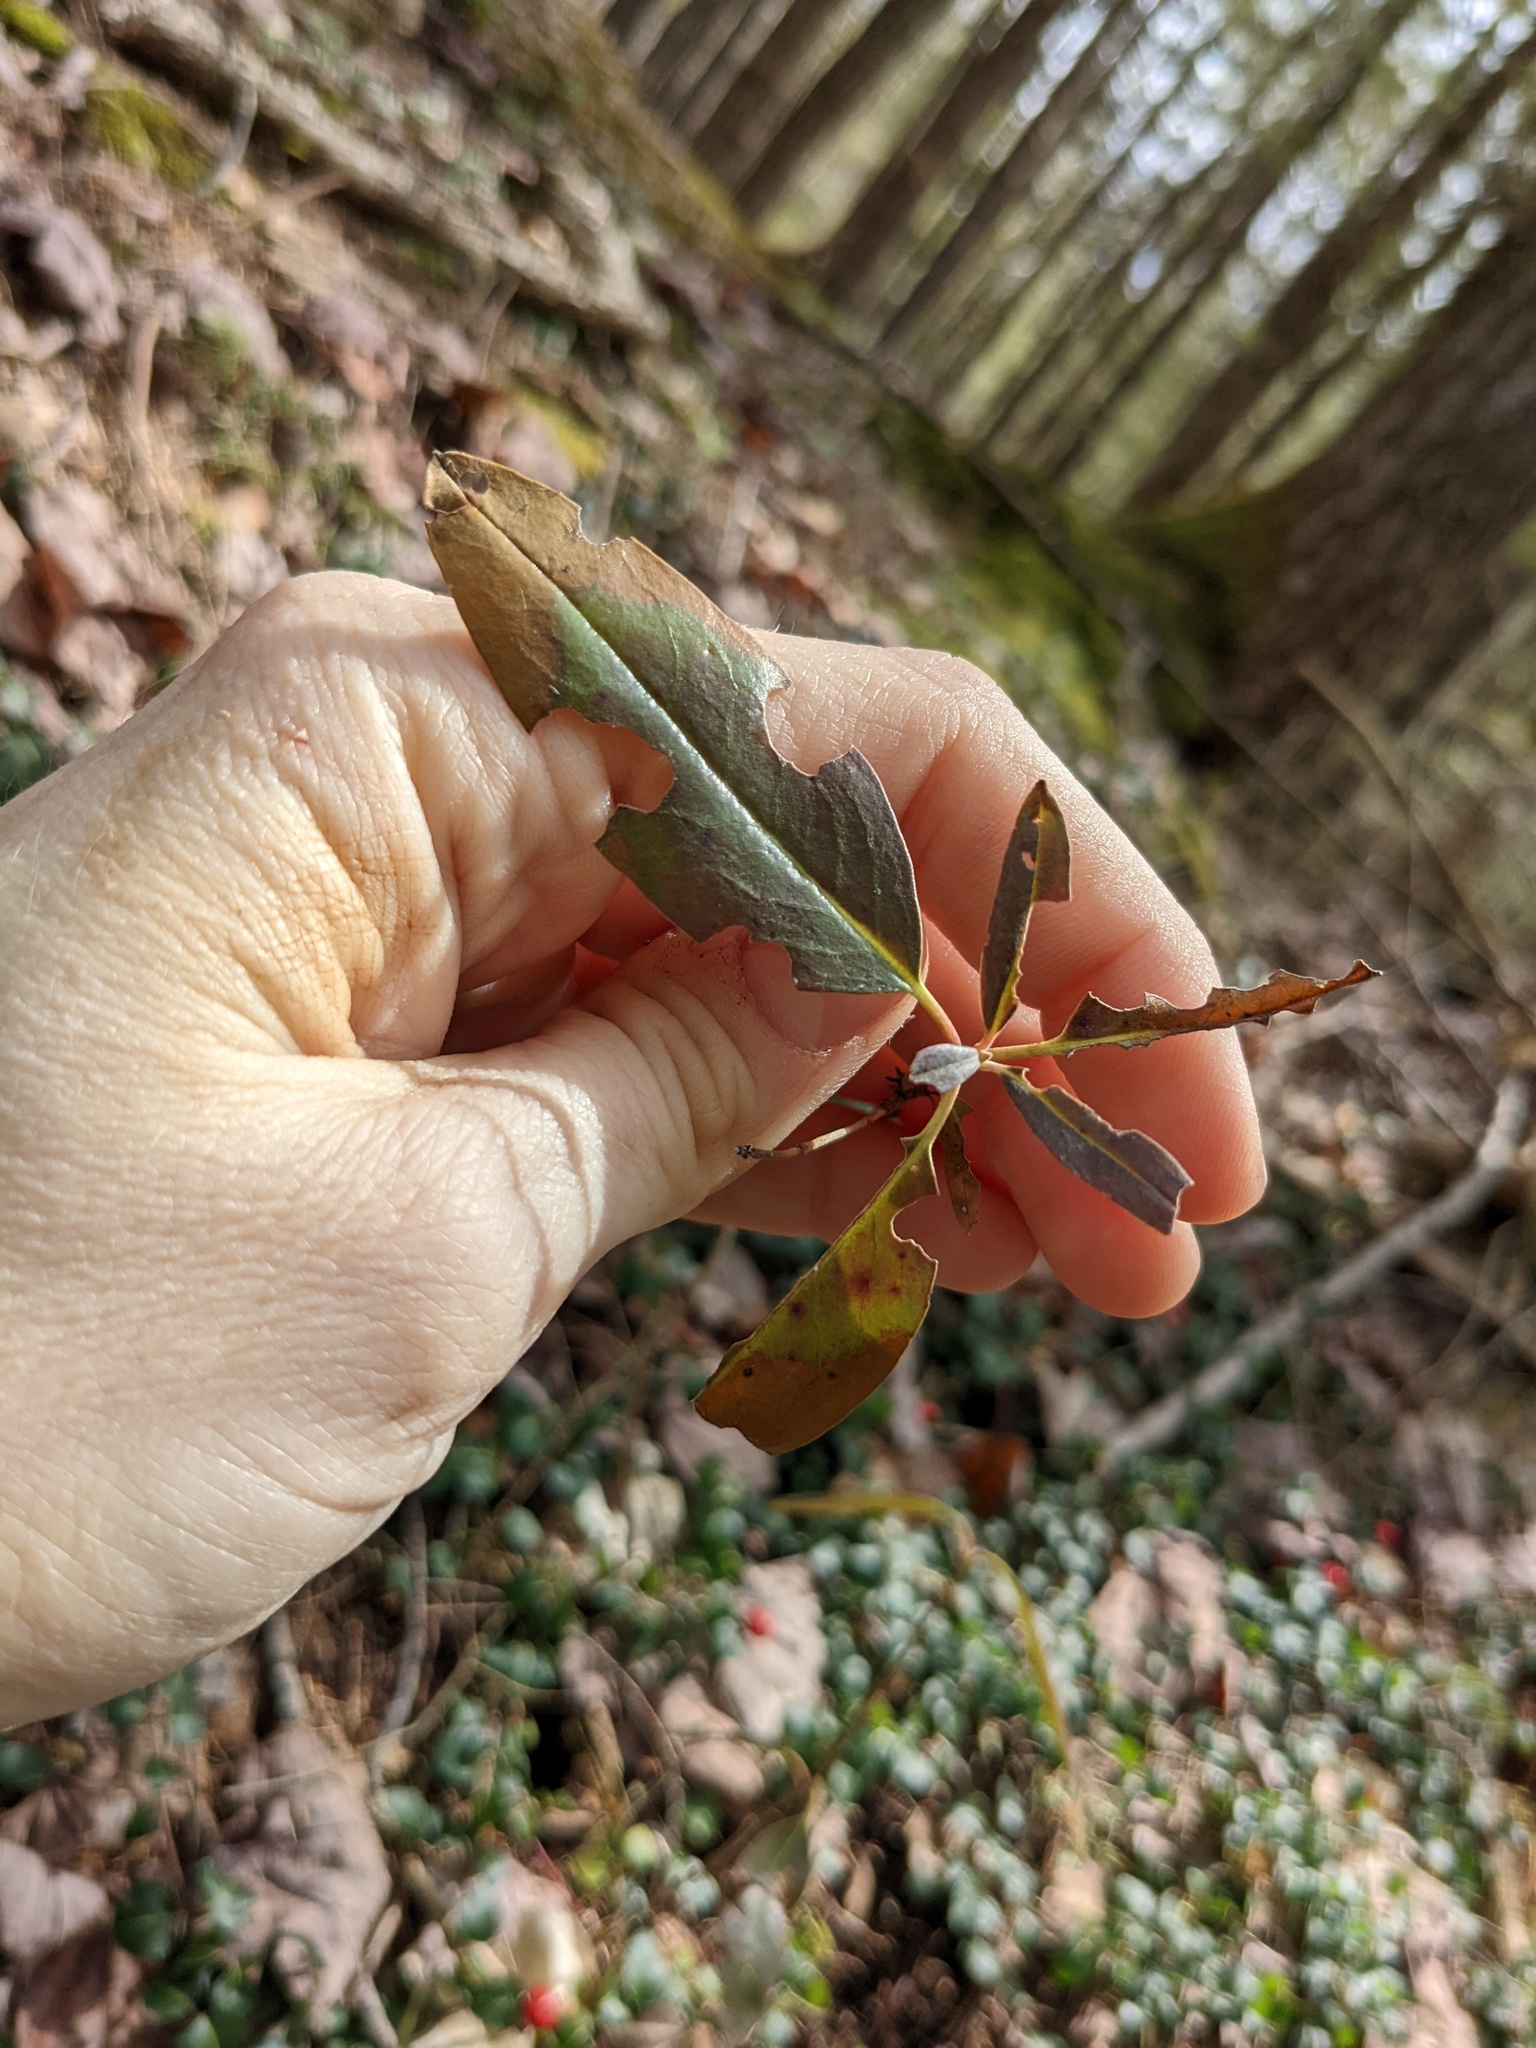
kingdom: Plantae
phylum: Tracheophyta
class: Magnoliopsida
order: Ericales
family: Ericaceae
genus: Kalmia
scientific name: Kalmia angustifolia
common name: Sheep-laurel
